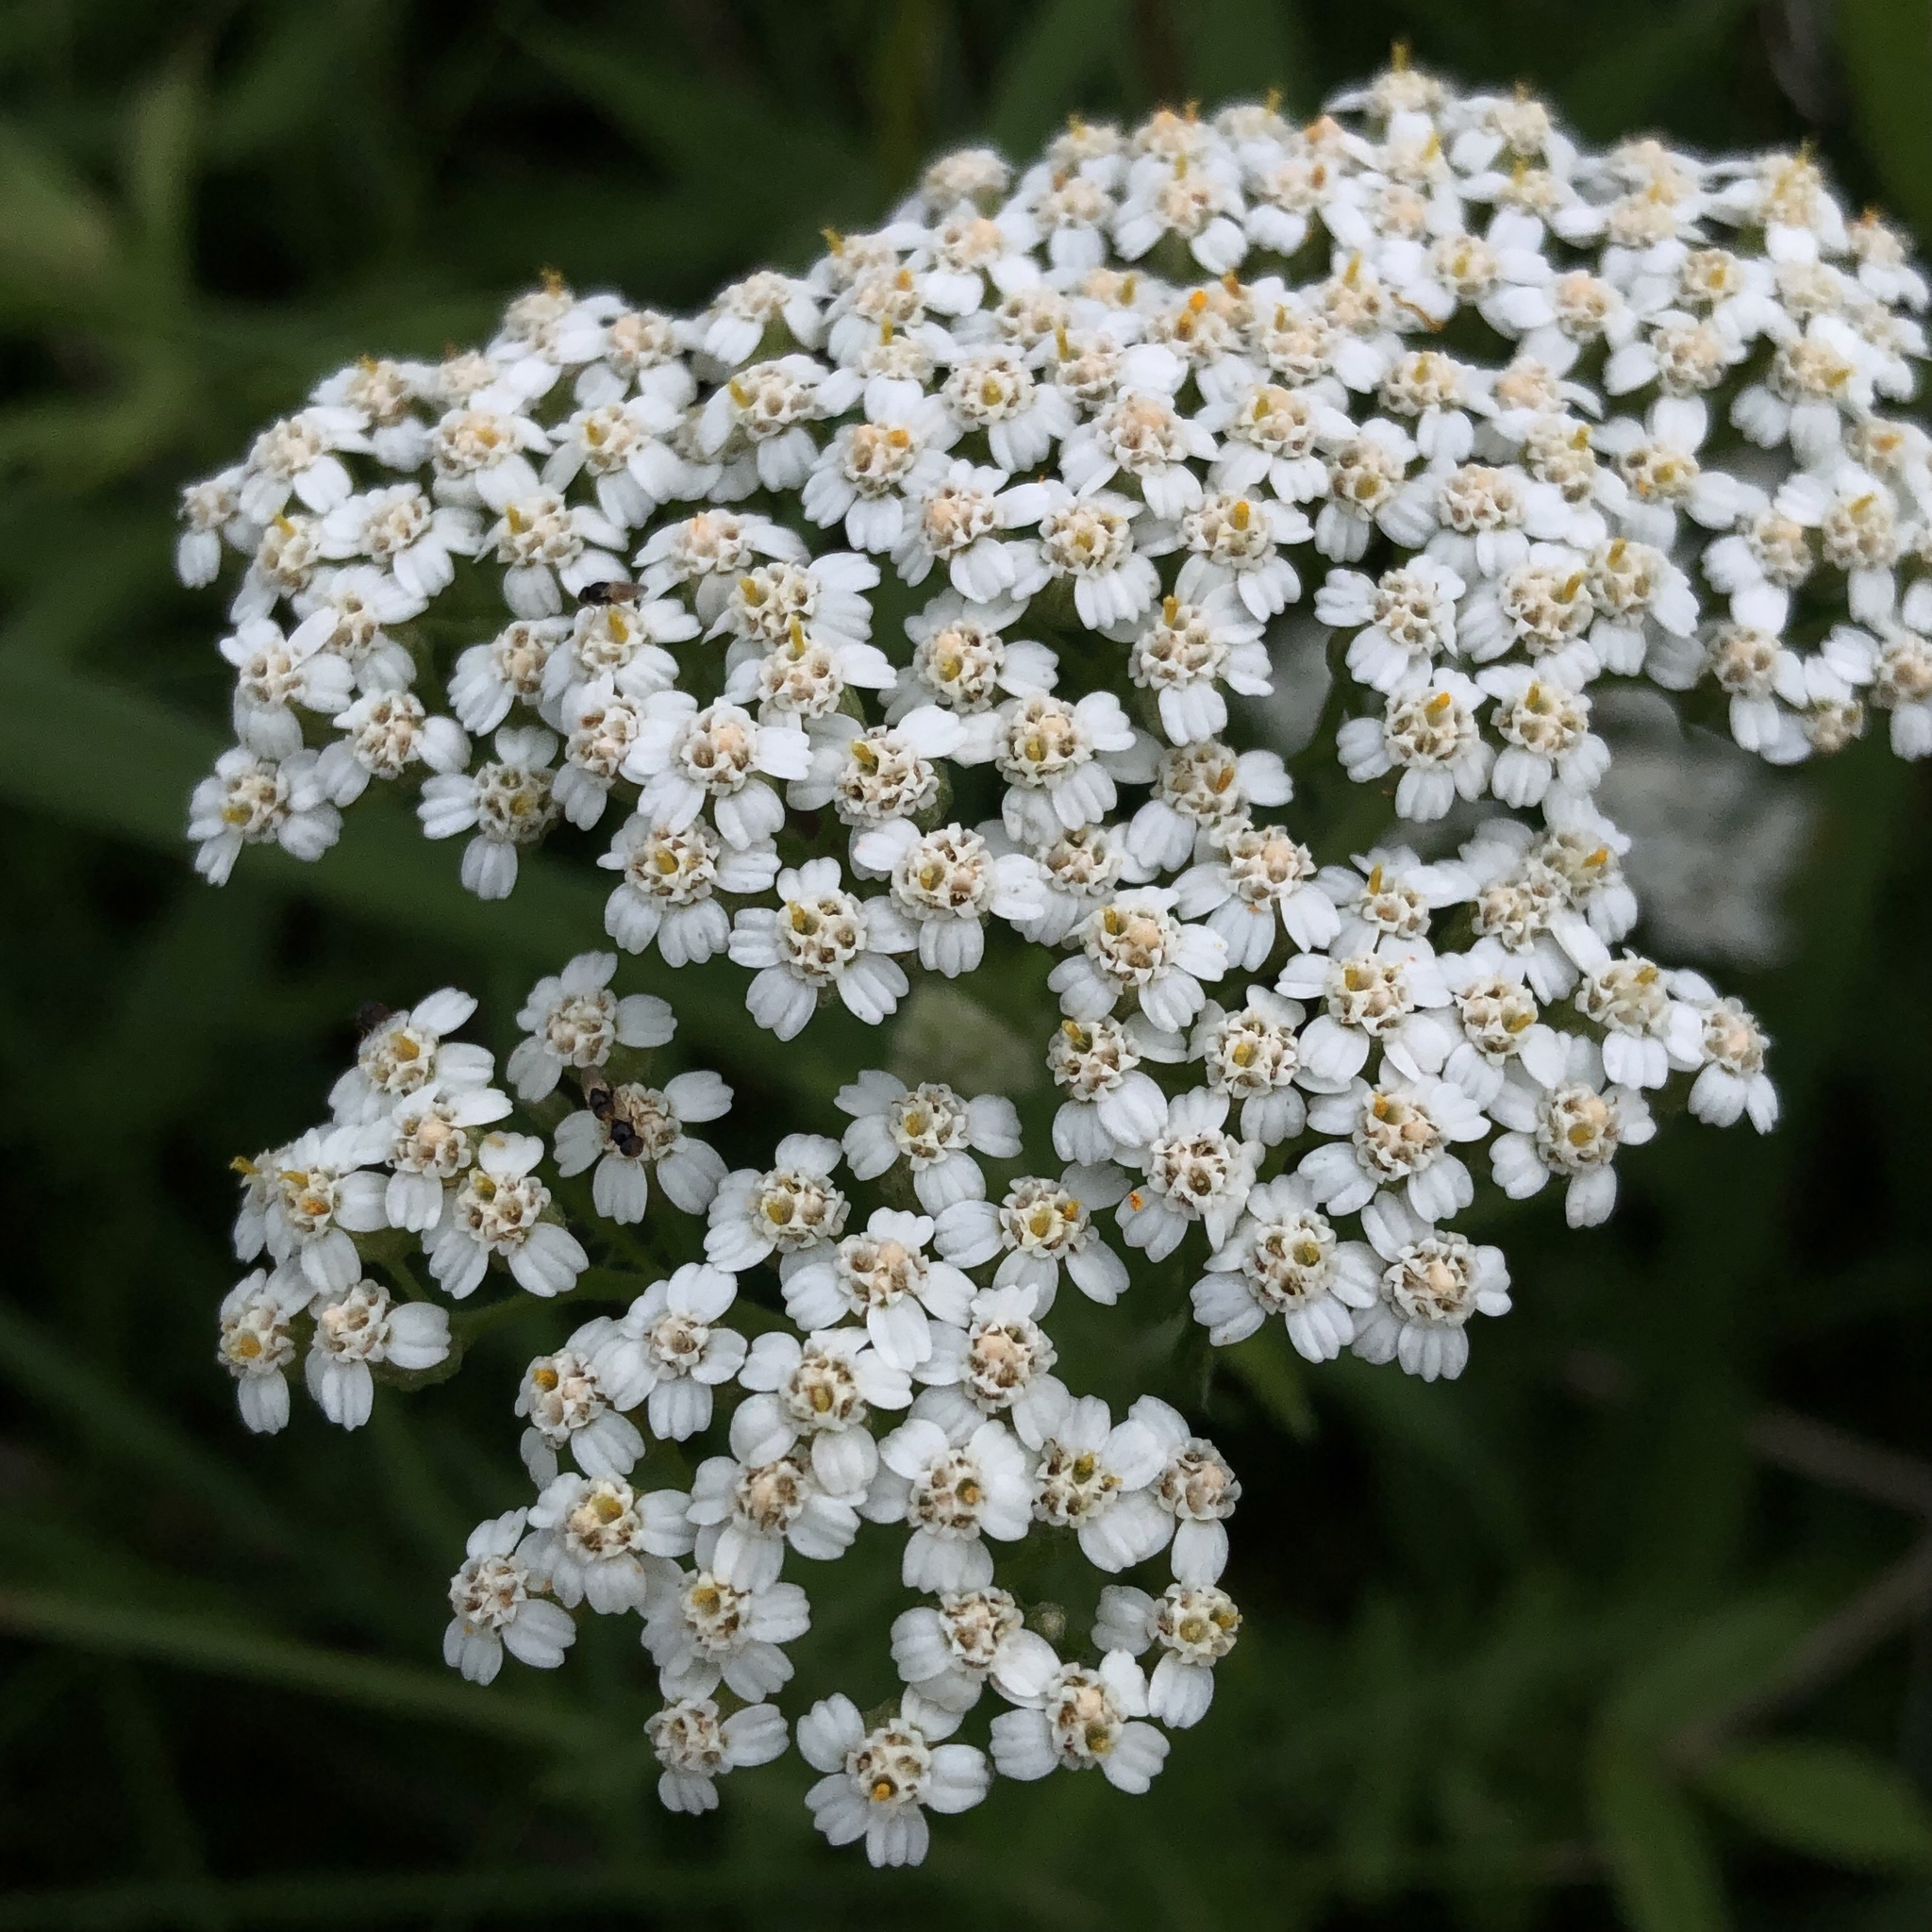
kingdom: Plantae
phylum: Tracheophyta
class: Magnoliopsida
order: Asterales
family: Asteraceae
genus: Achillea
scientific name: Achillea millefolium
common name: Yarrow
